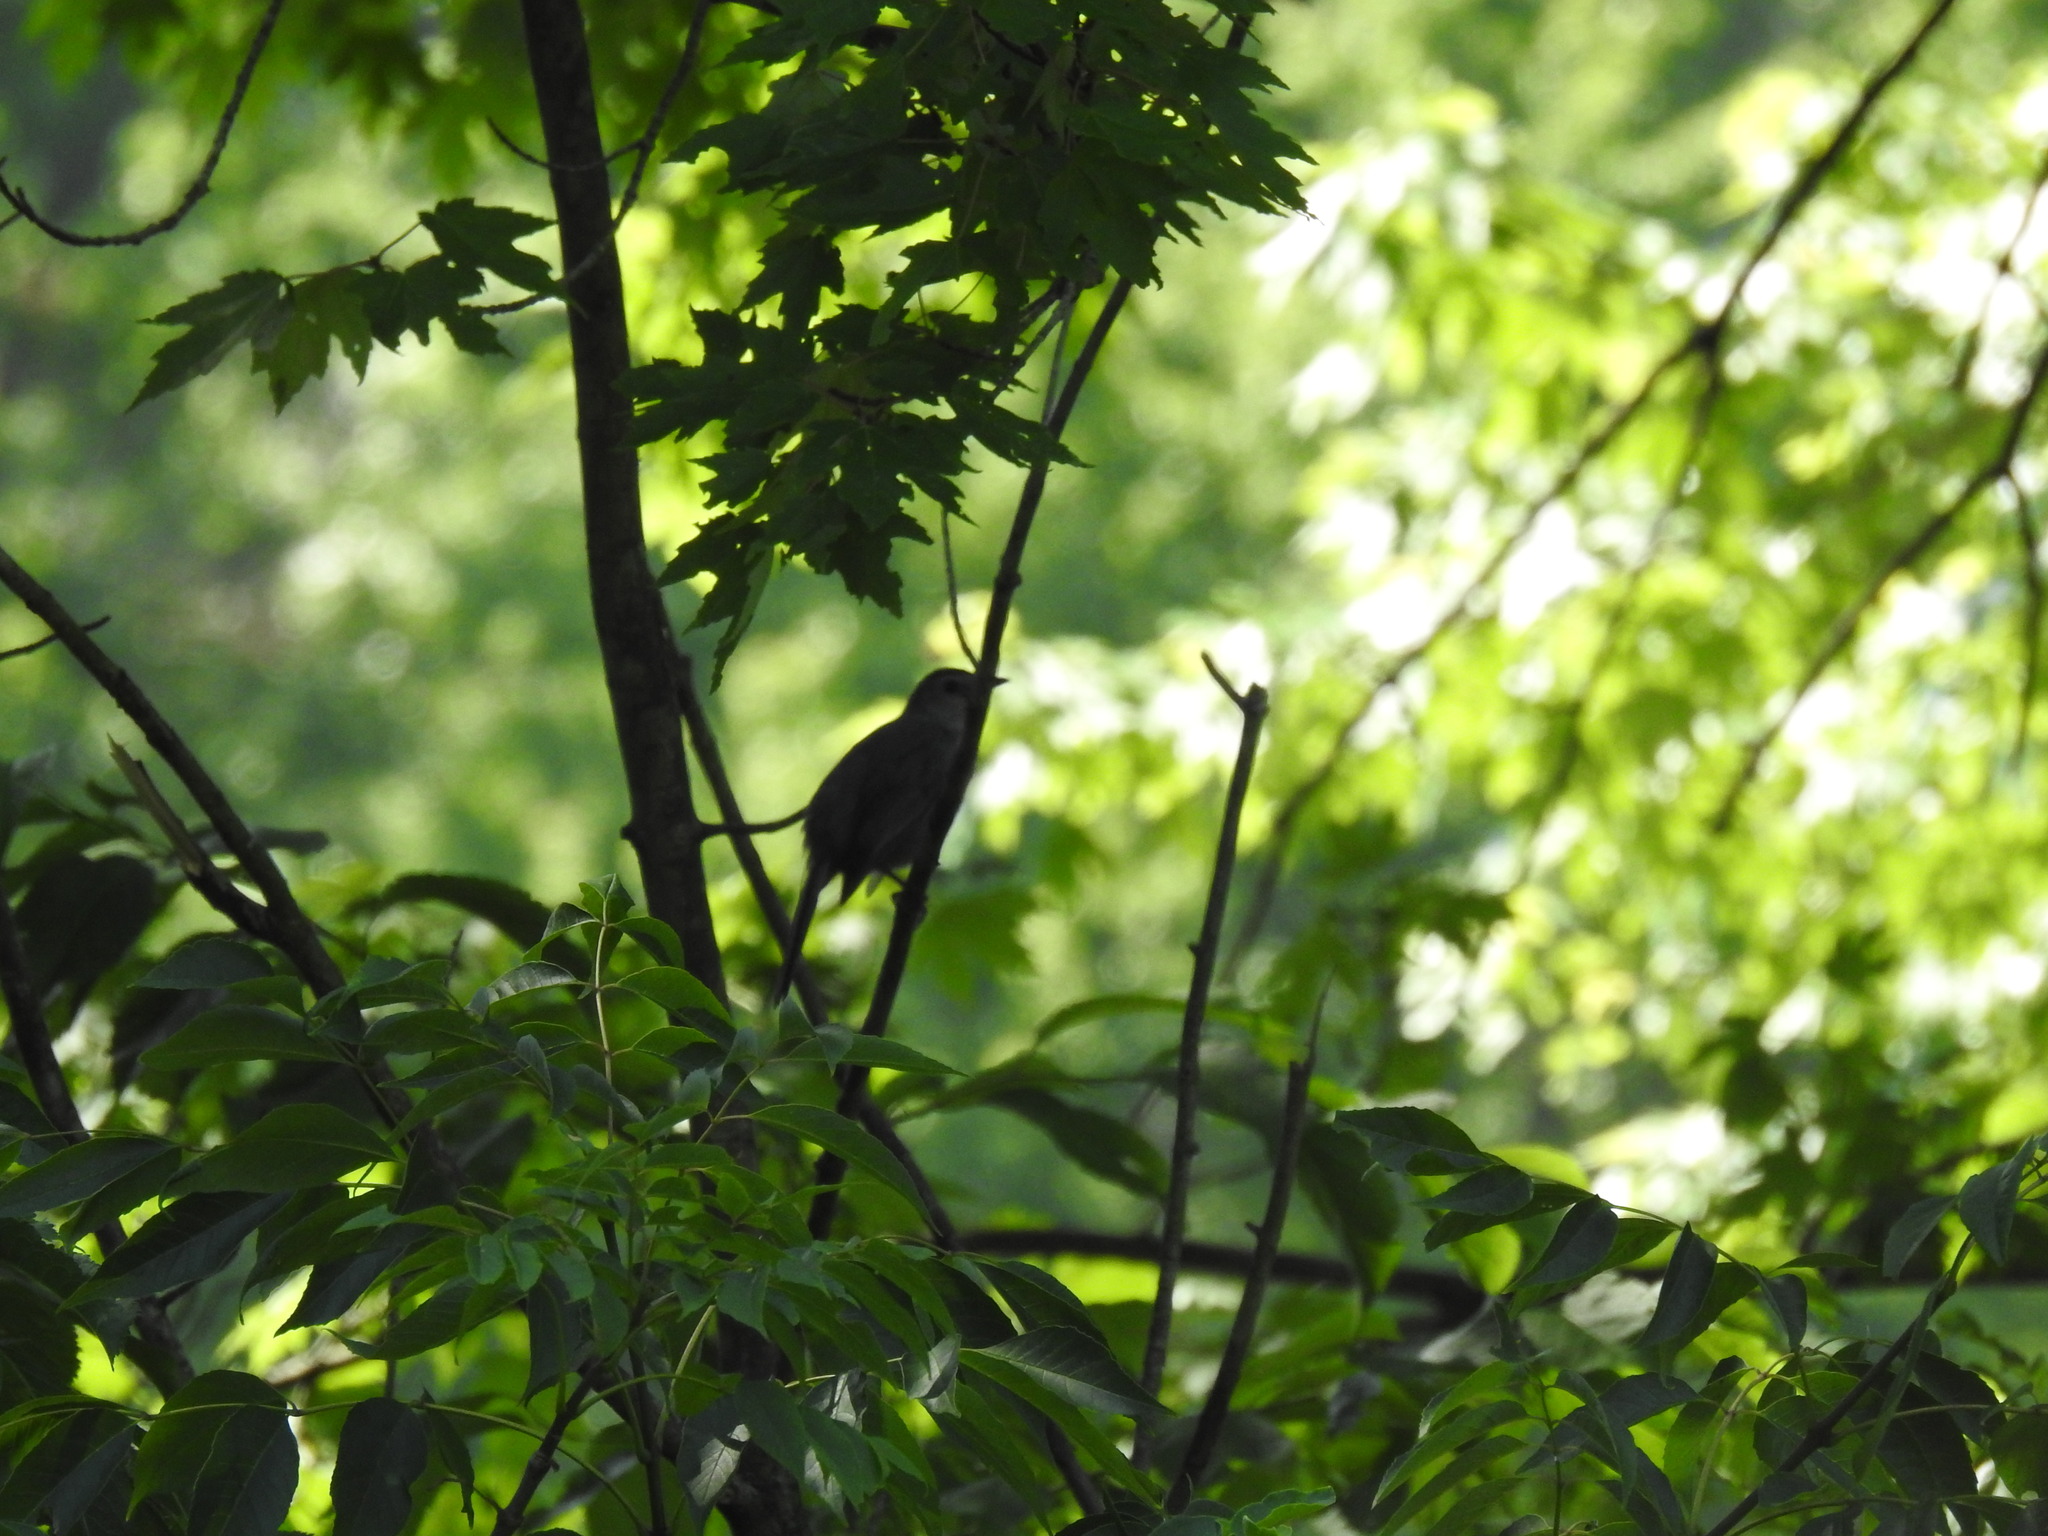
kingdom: Animalia
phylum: Chordata
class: Aves
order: Passeriformes
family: Mimidae
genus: Dumetella
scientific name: Dumetella carolinensis
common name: Gray catbird
